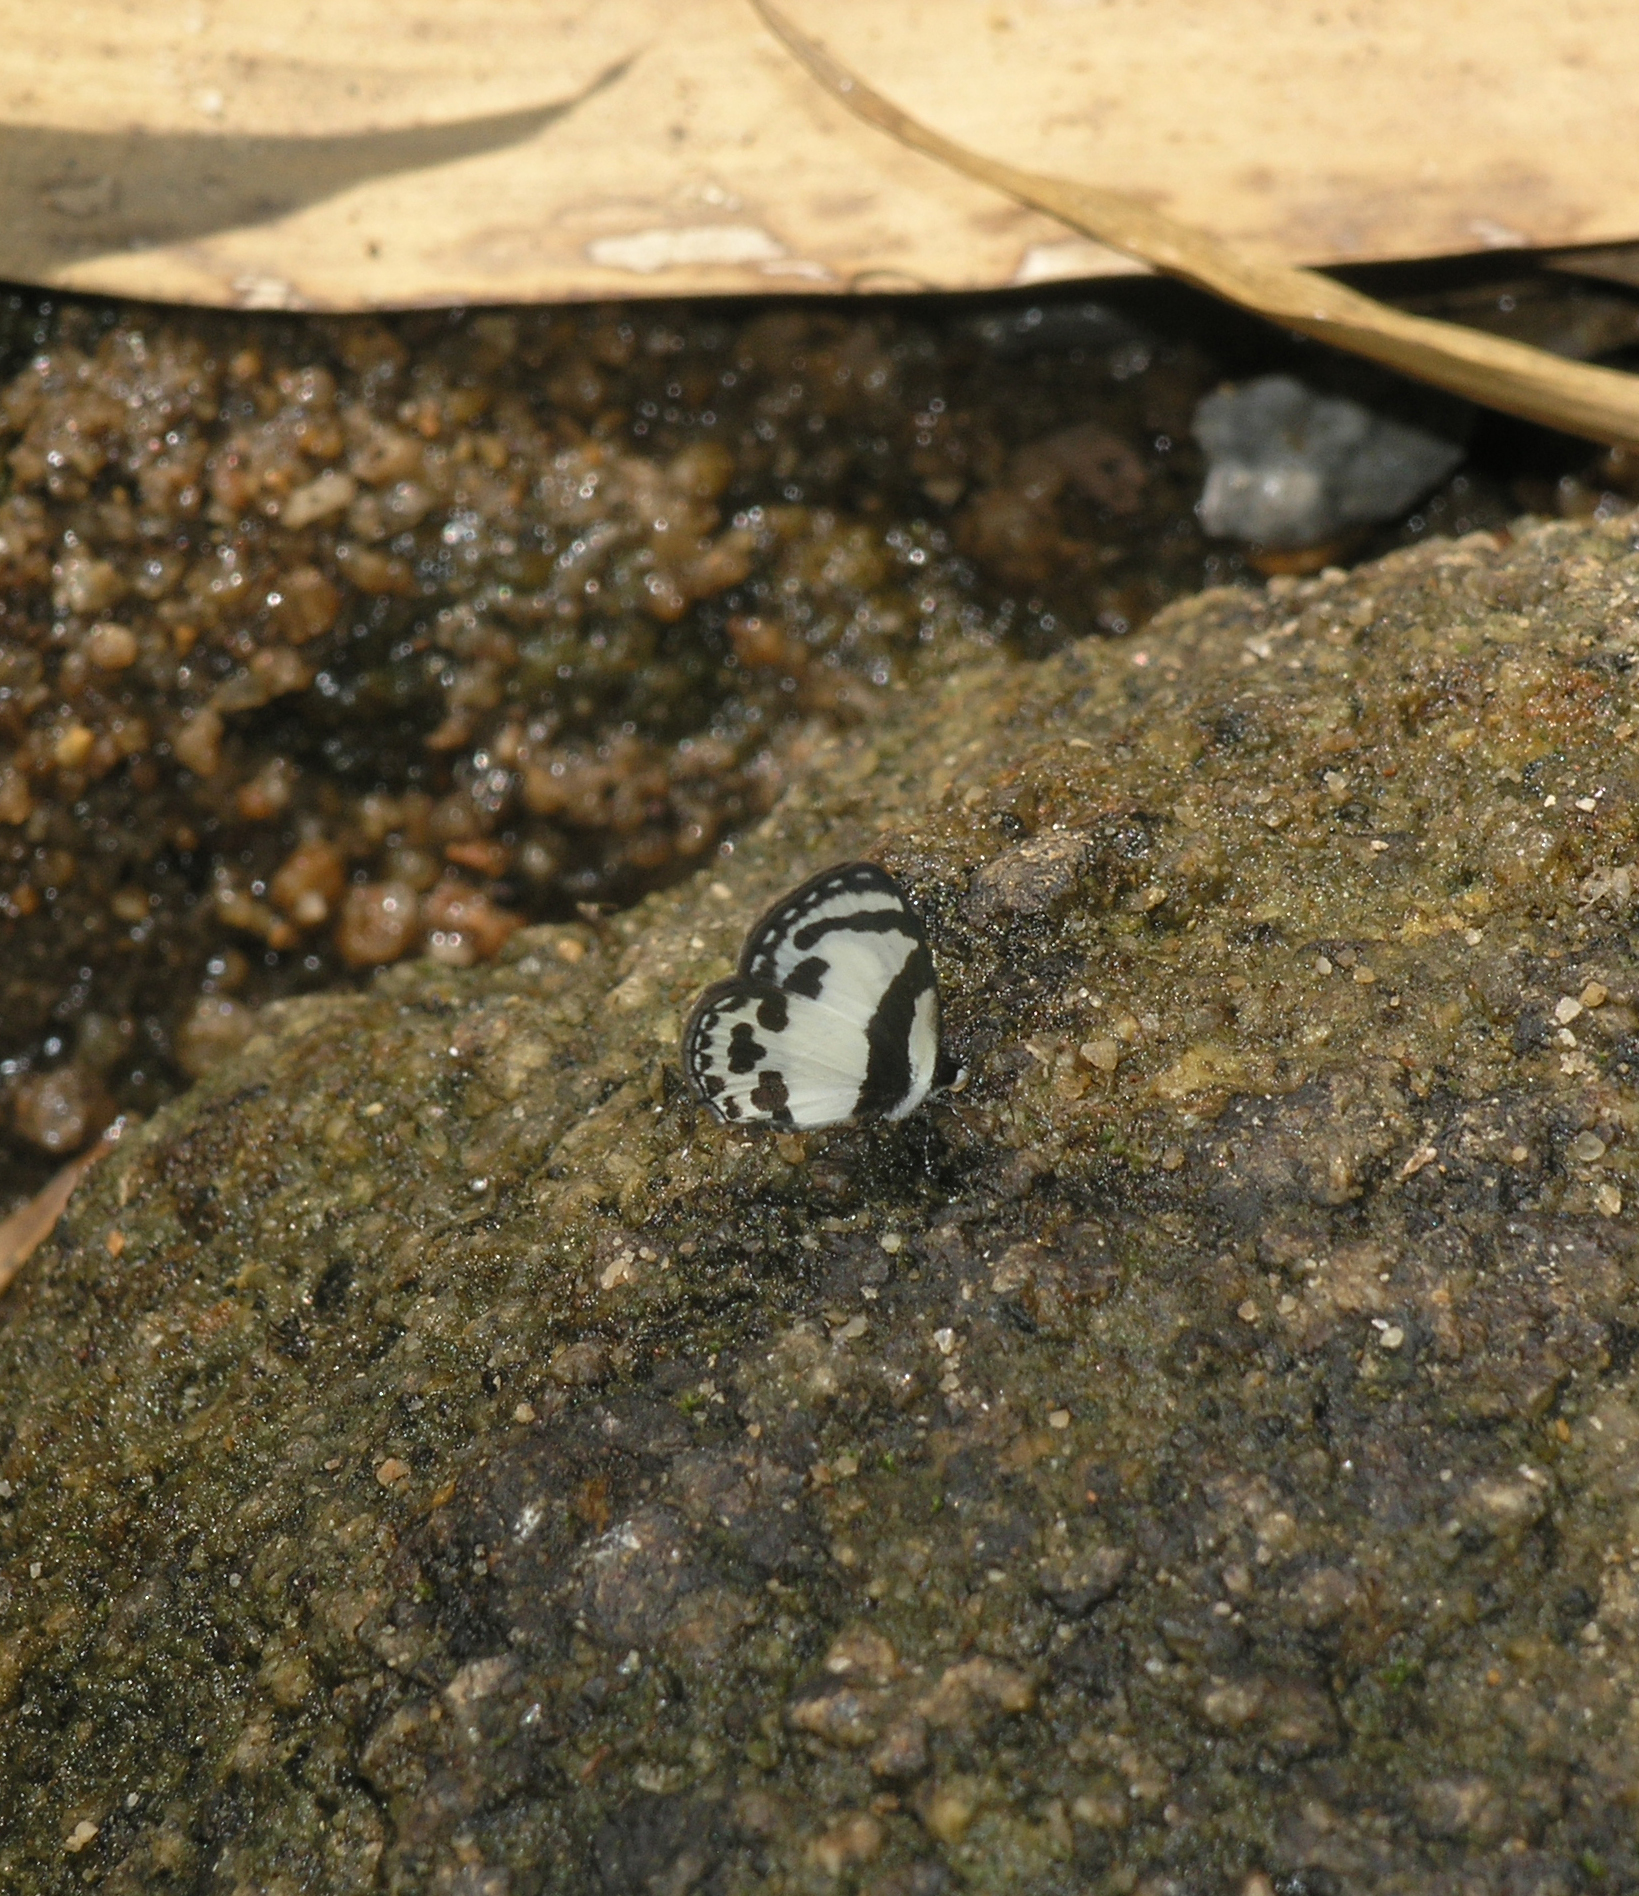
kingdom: Animalia
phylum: Arthropoda
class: Insecta
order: Lepidoptera
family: Lycaenidae
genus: Caleta
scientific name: Caleta roxus
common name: Straight pierrot
